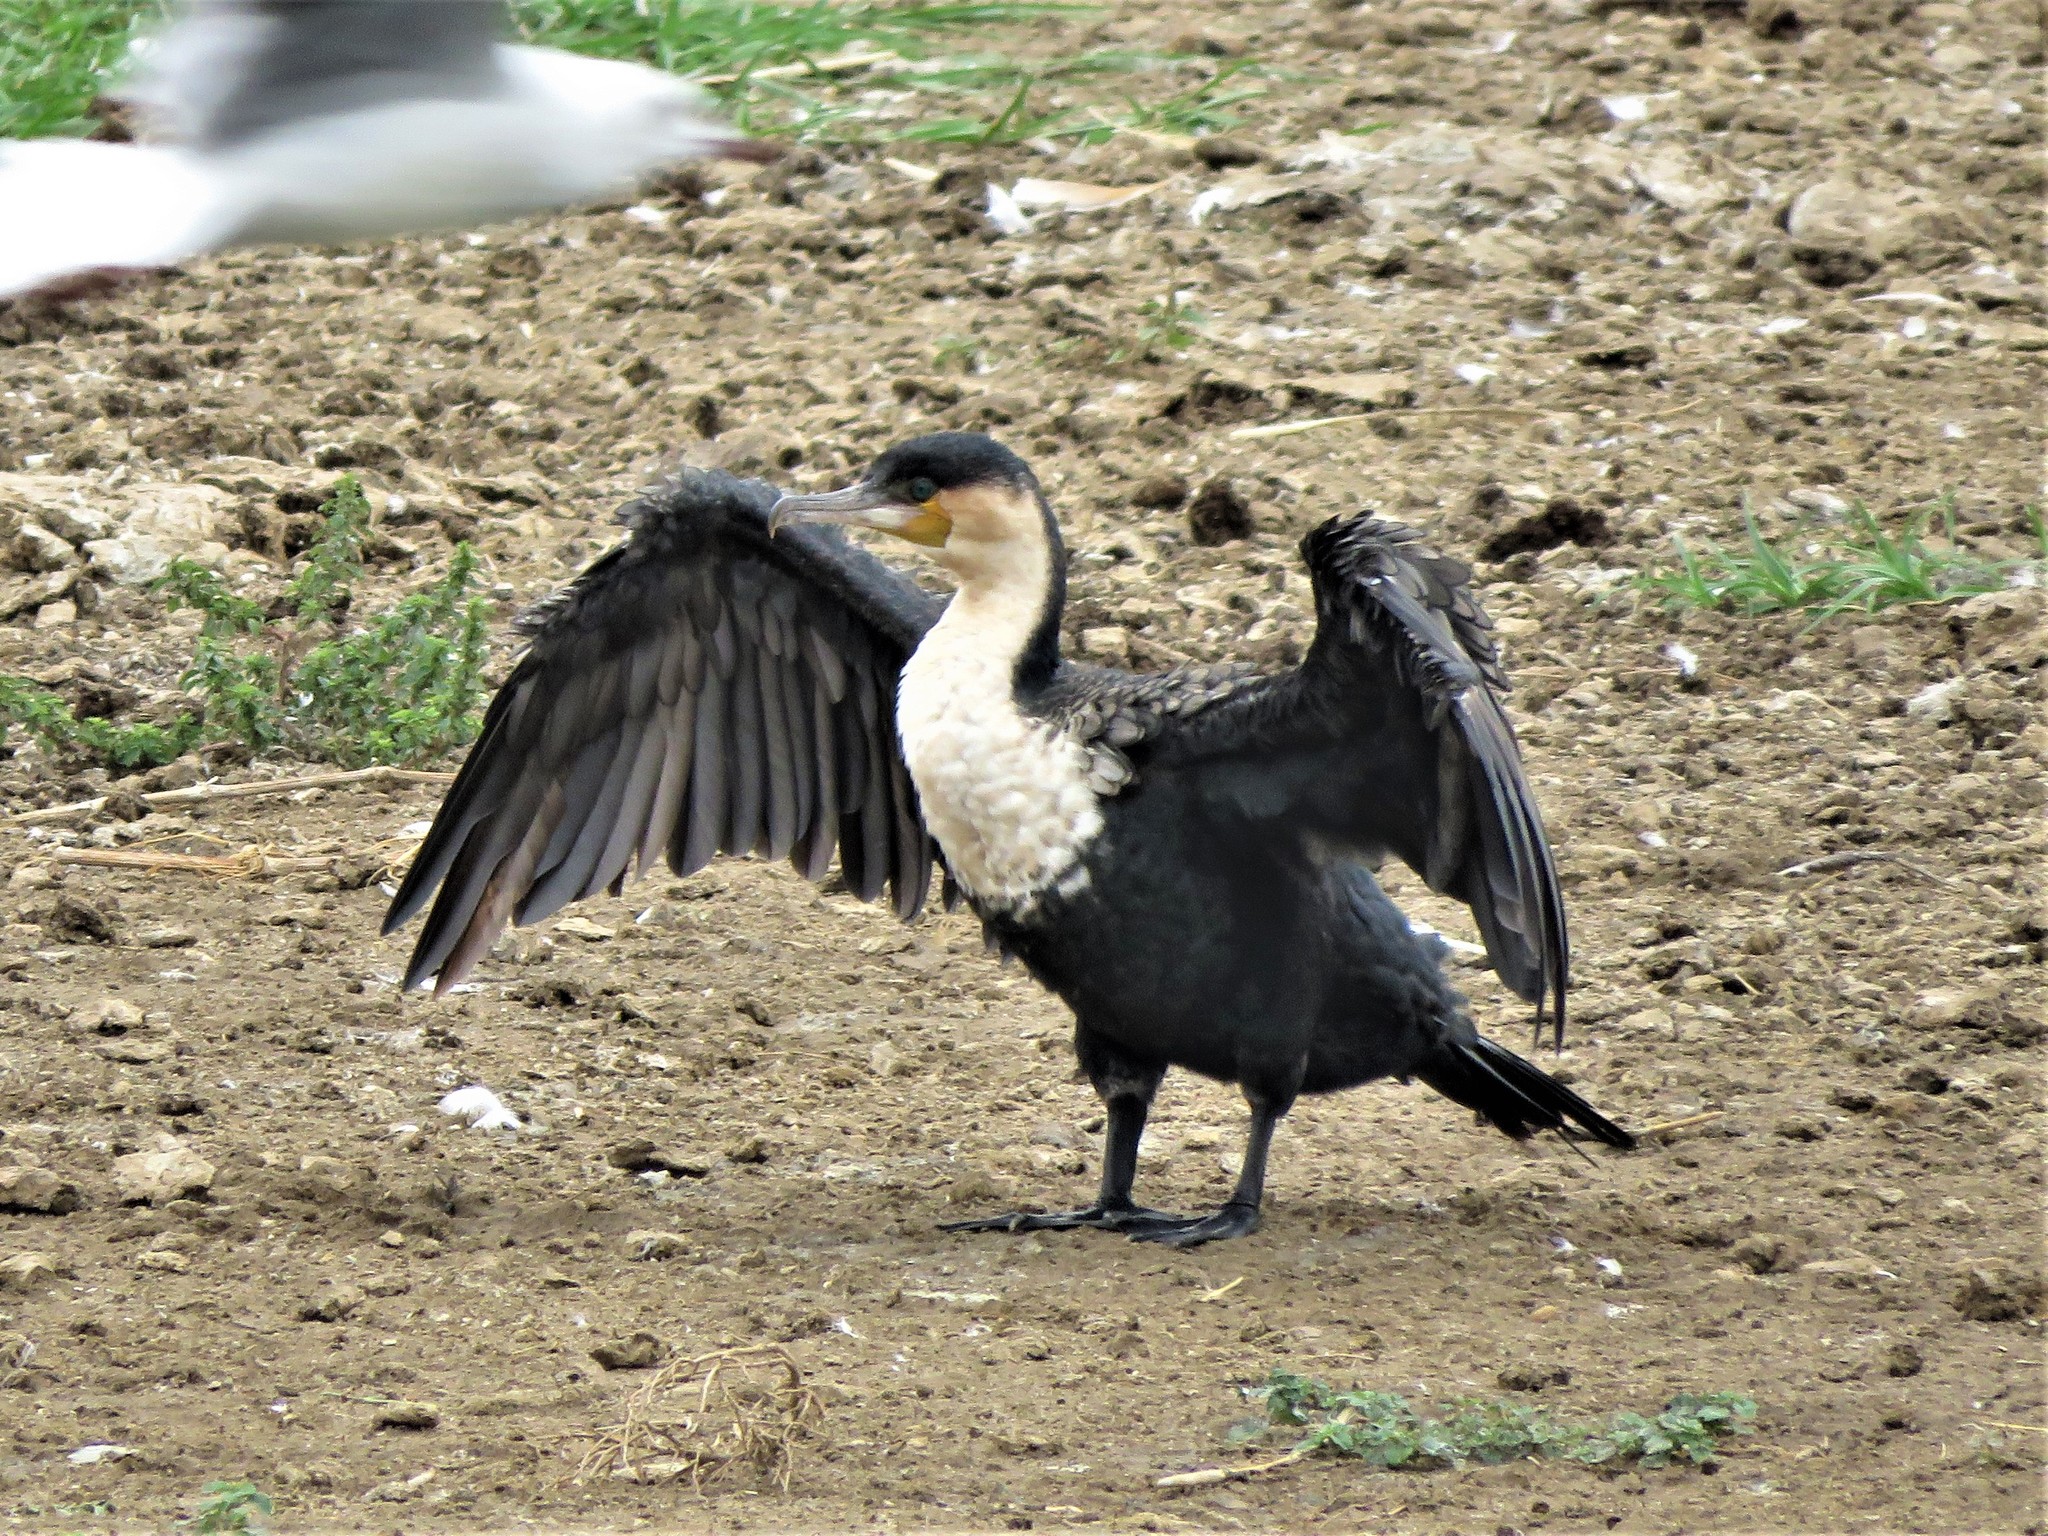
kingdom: Animalia
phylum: Chordata
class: Aves
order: Suliformes
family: Phalacrocoracidae
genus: Phalacrocorax
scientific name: Phalacrocorax carbo
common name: Great cormorant
